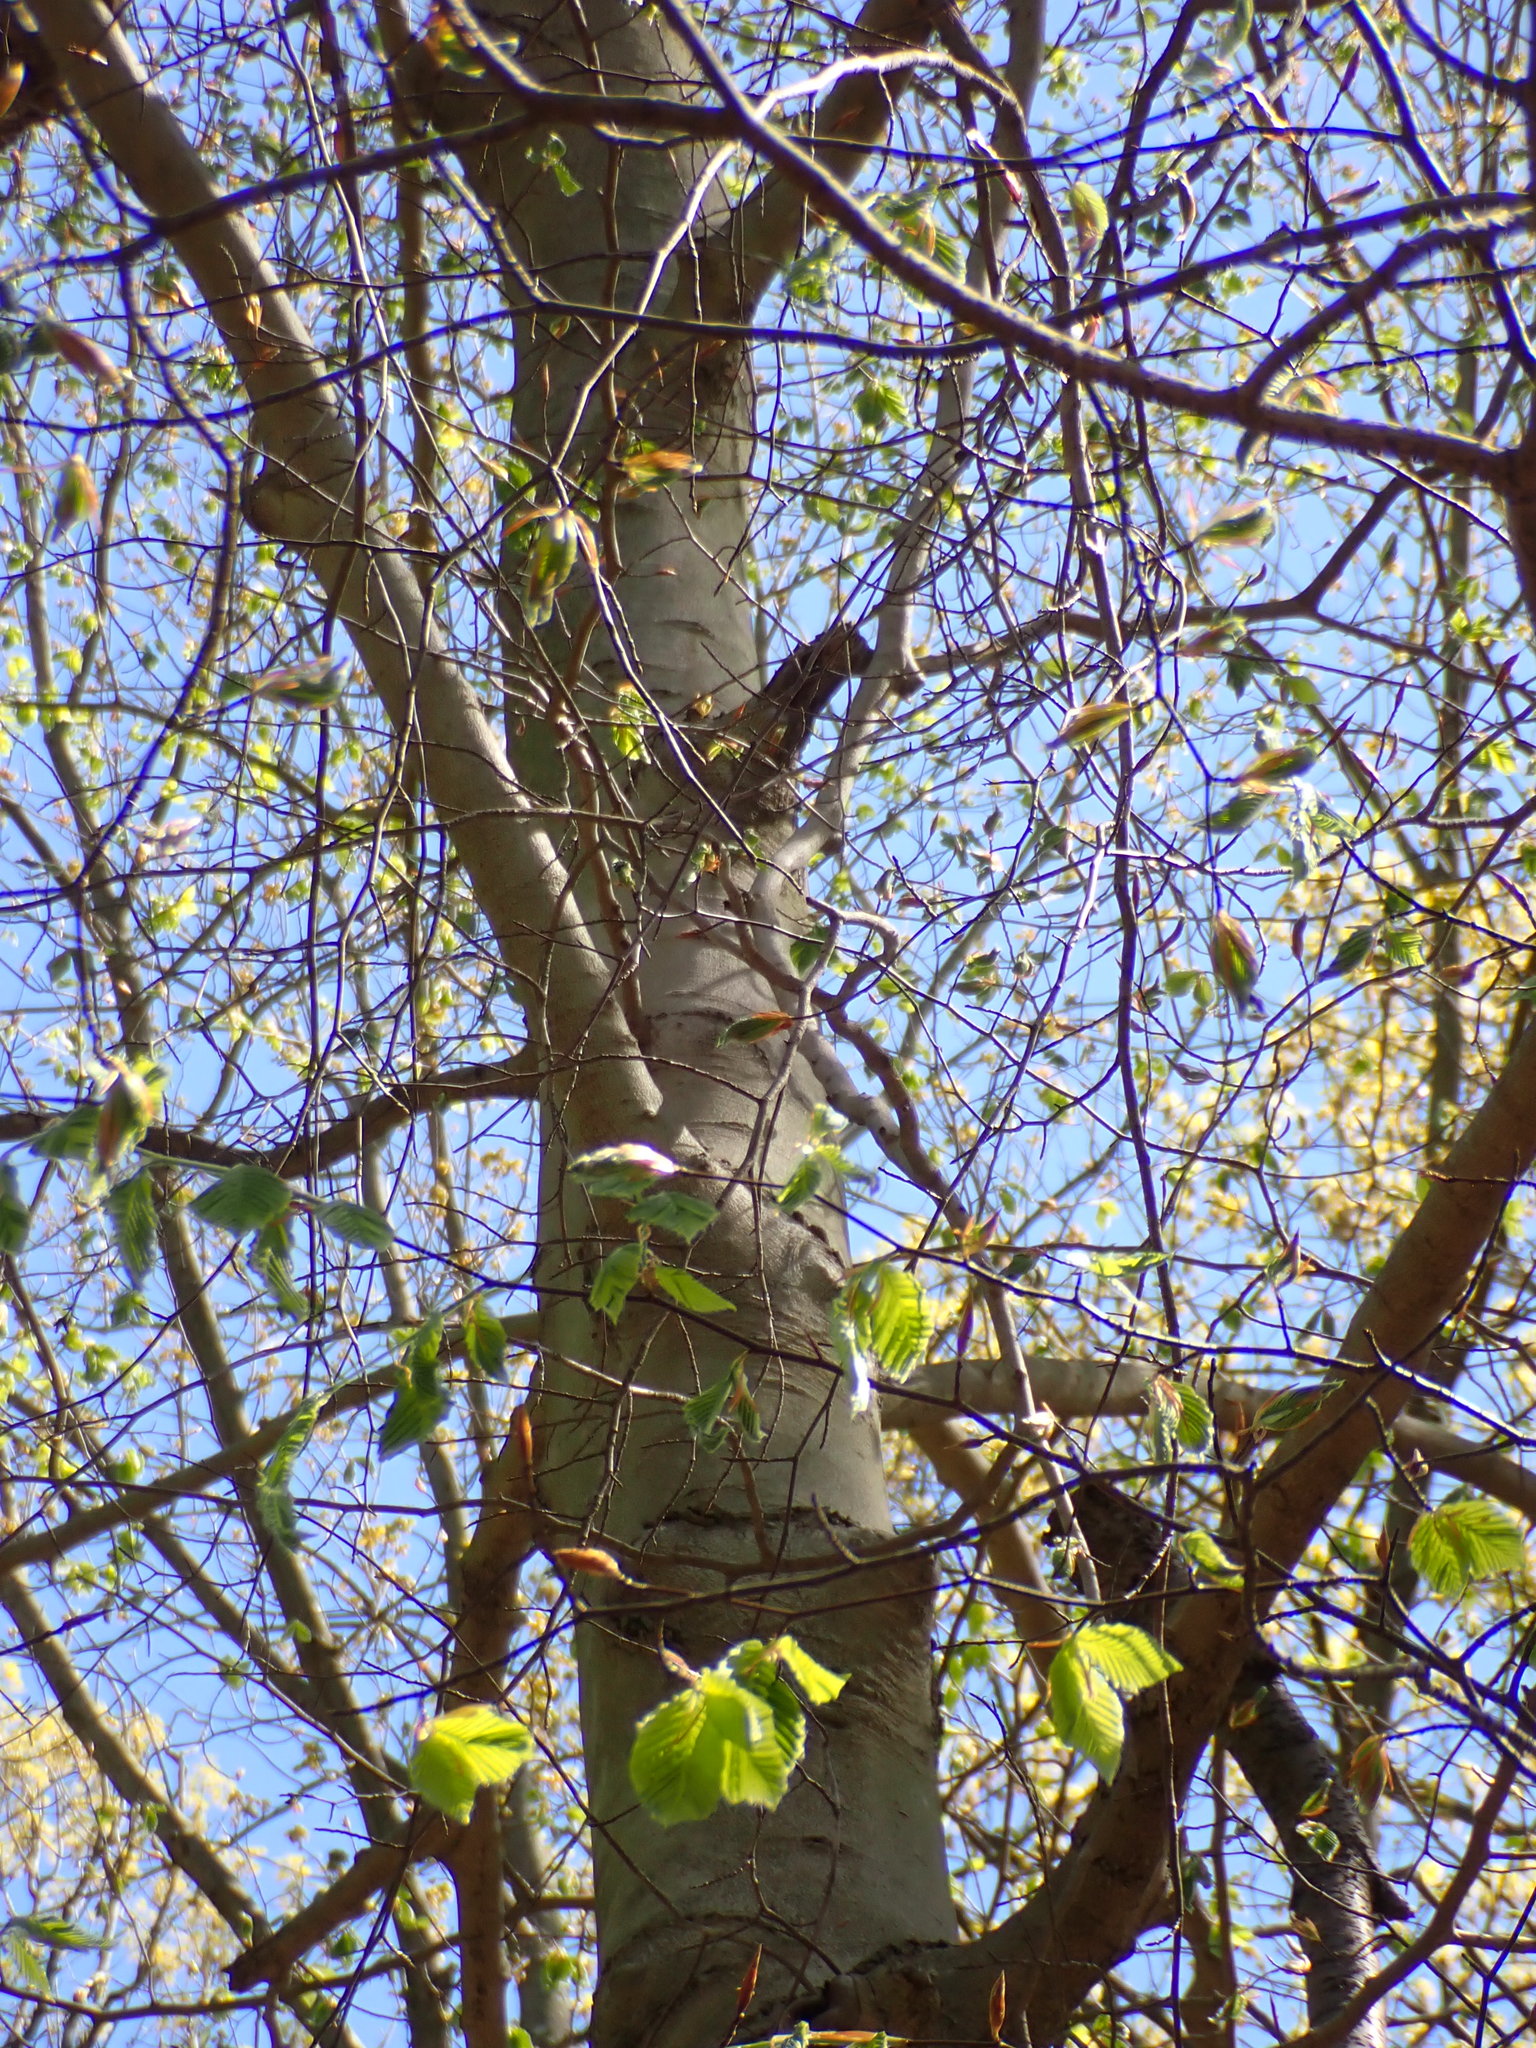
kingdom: Plantae
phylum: Tracheophyta
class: Magnoliopsida
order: Fagales
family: Fagaceae
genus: Fagus
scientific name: Fagus grandifolia
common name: American beech
